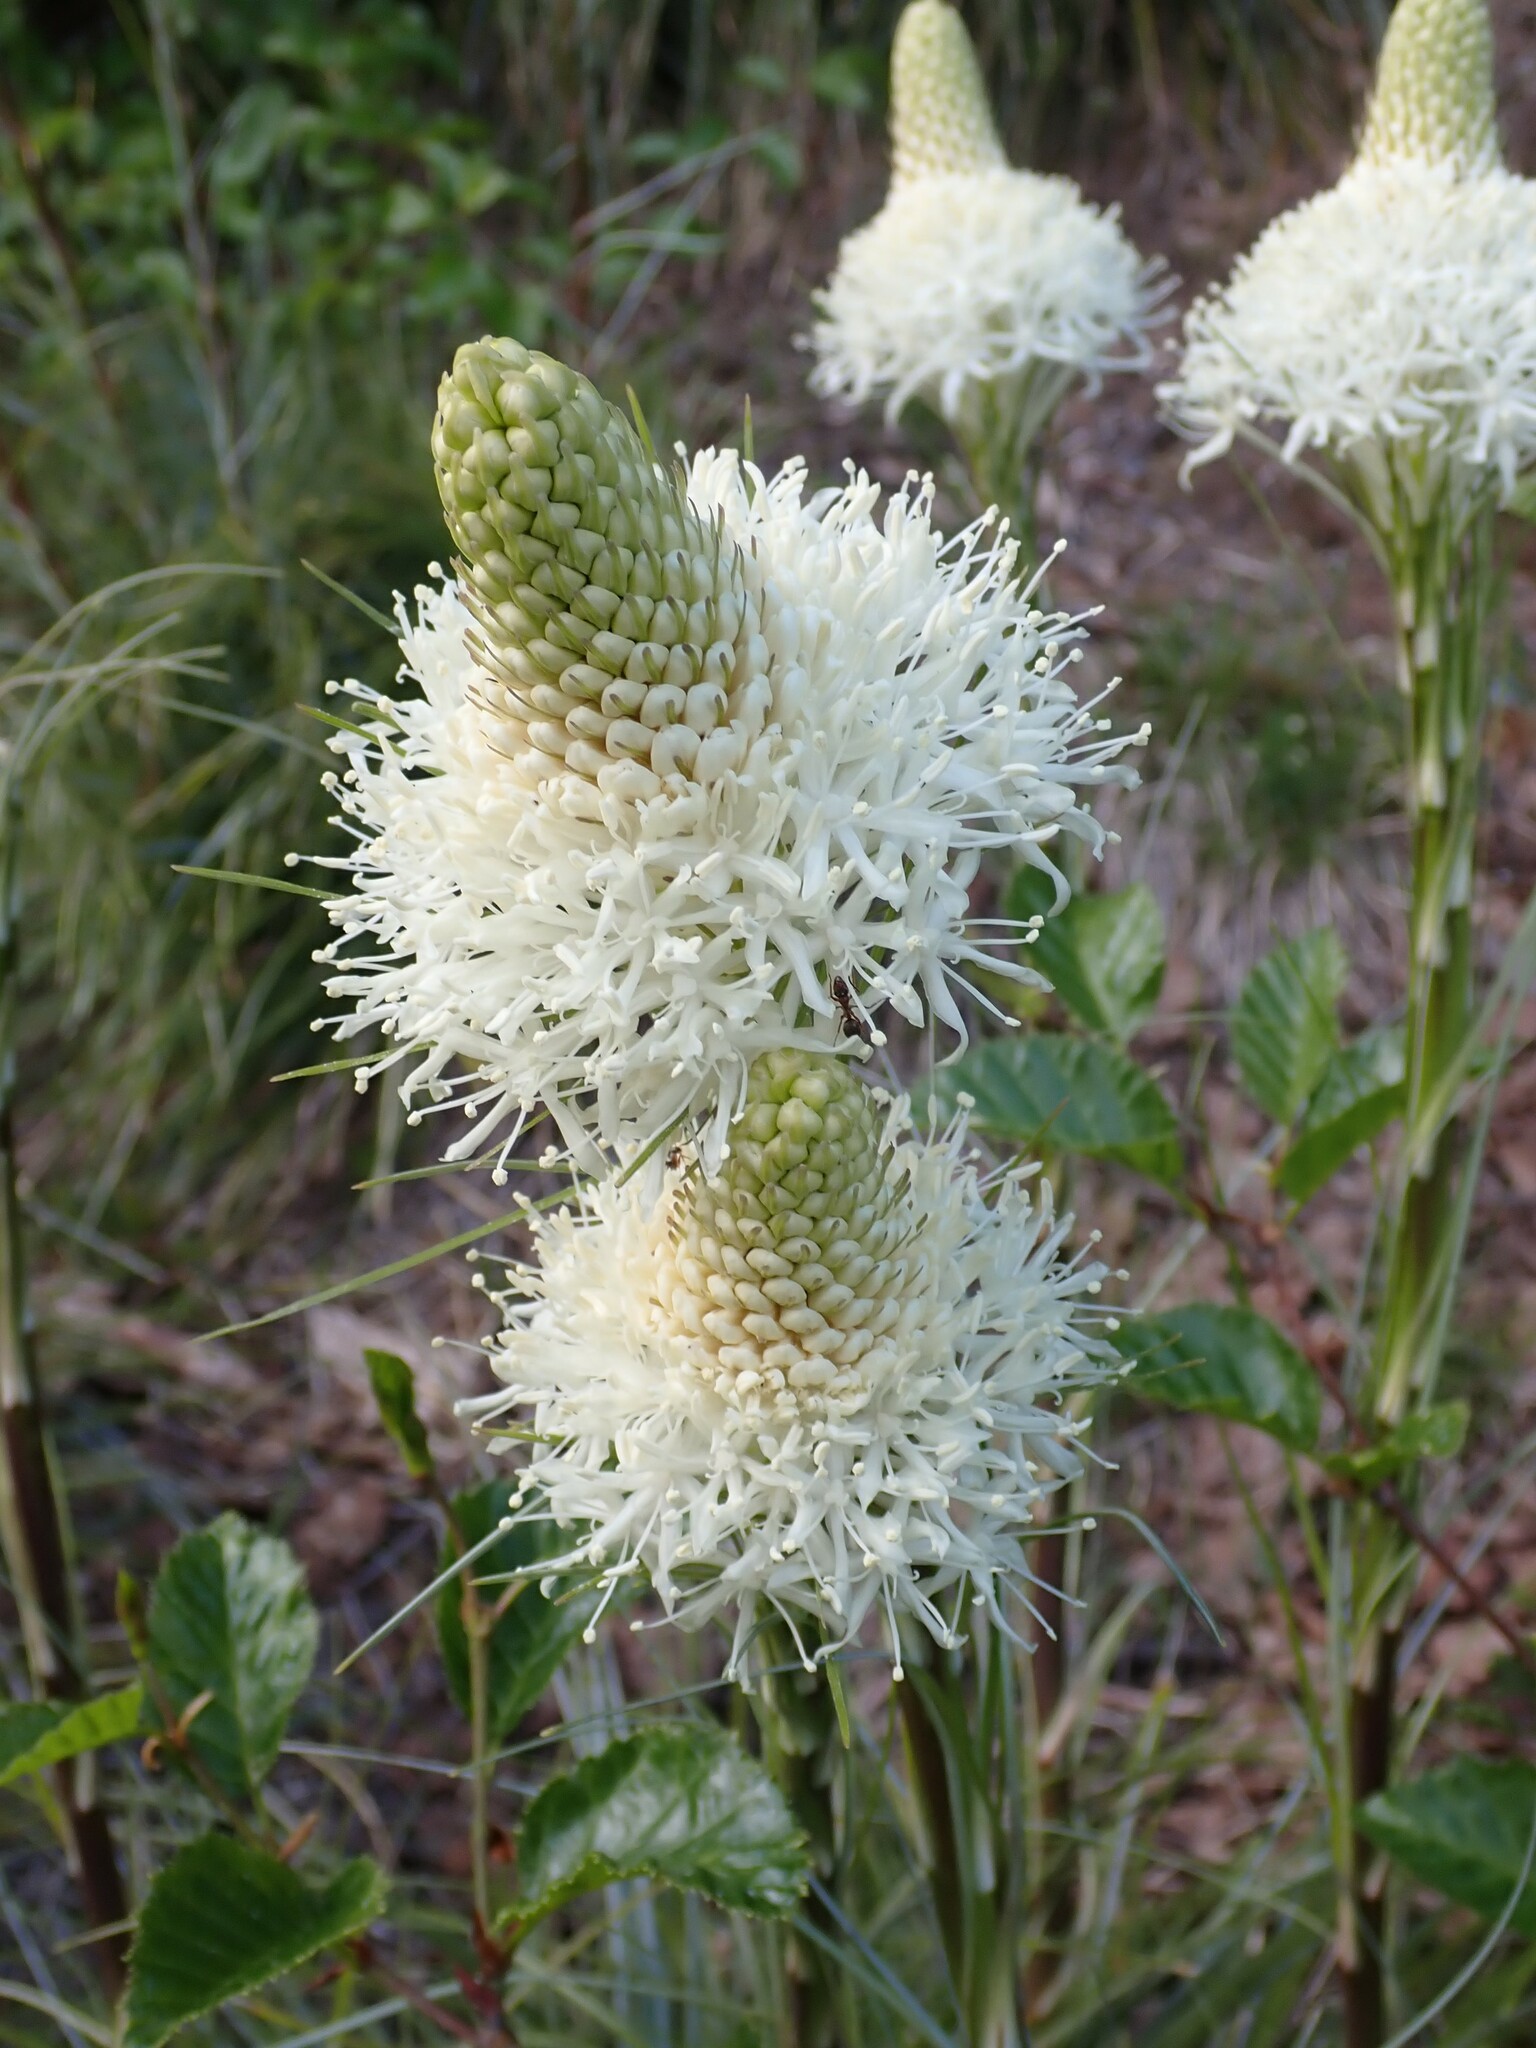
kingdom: Plantae
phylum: Tracheophyta
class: Liliopsida
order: Liliales
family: Melanthiaceae
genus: Xerophyllum
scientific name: Xerophyllum tenax
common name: Bear-grass
